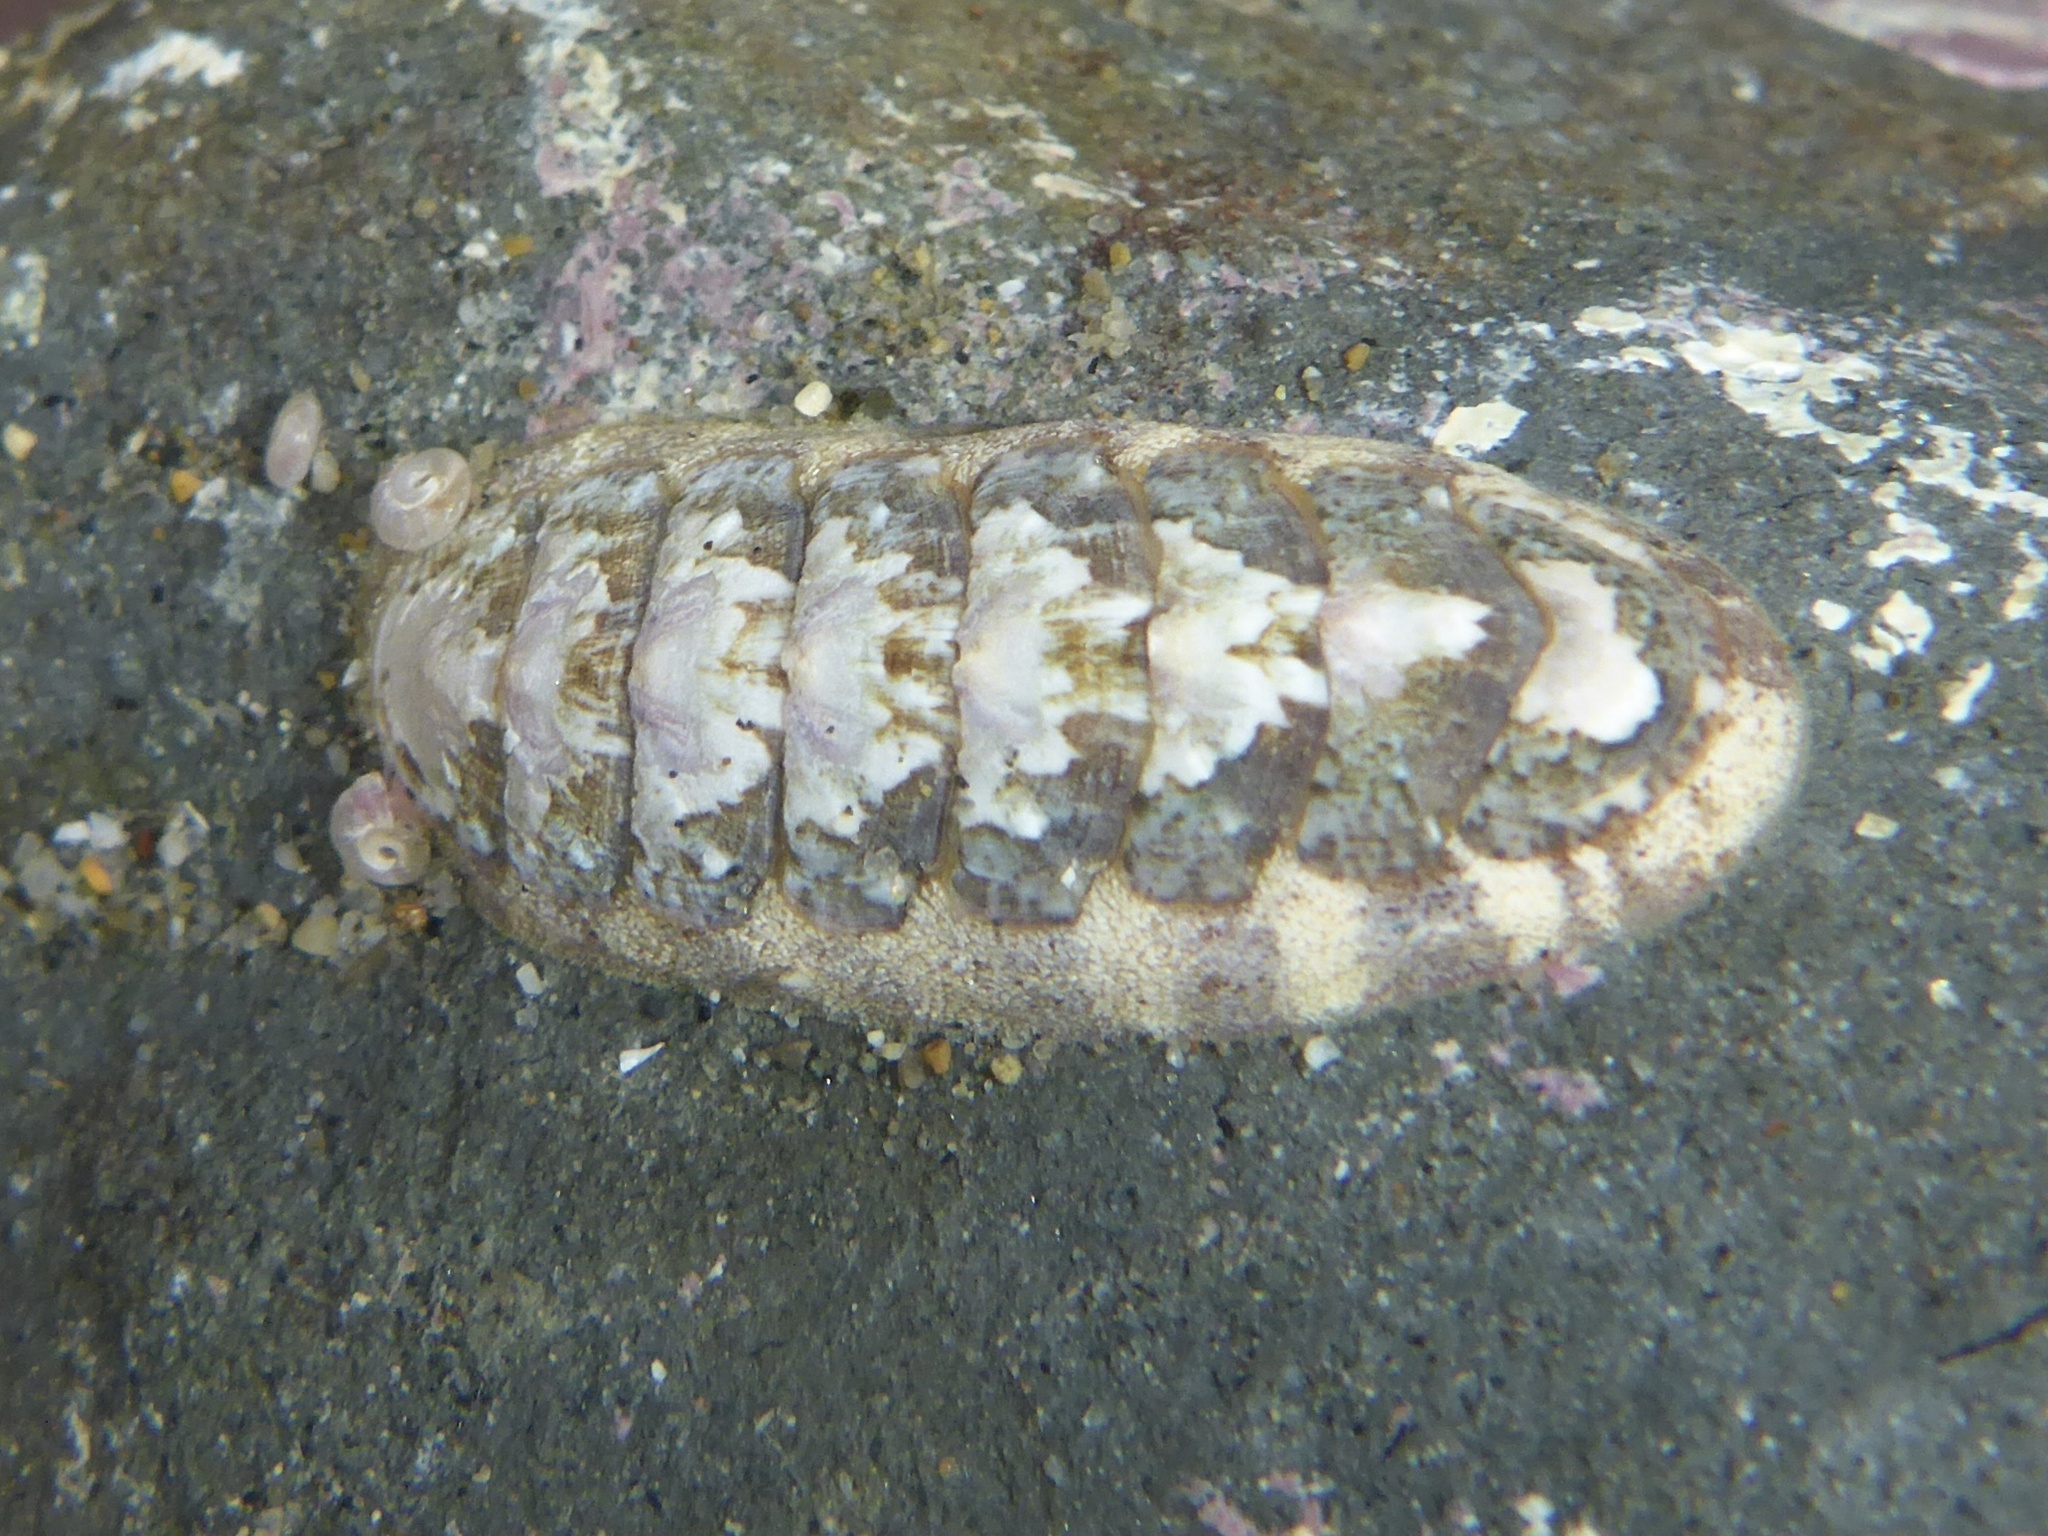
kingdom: Animalia
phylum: Mollusca
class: Polyplacophora
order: Chitonida
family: Ischnochitonidae
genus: Stenoplax
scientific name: Stenoplax heathiana
